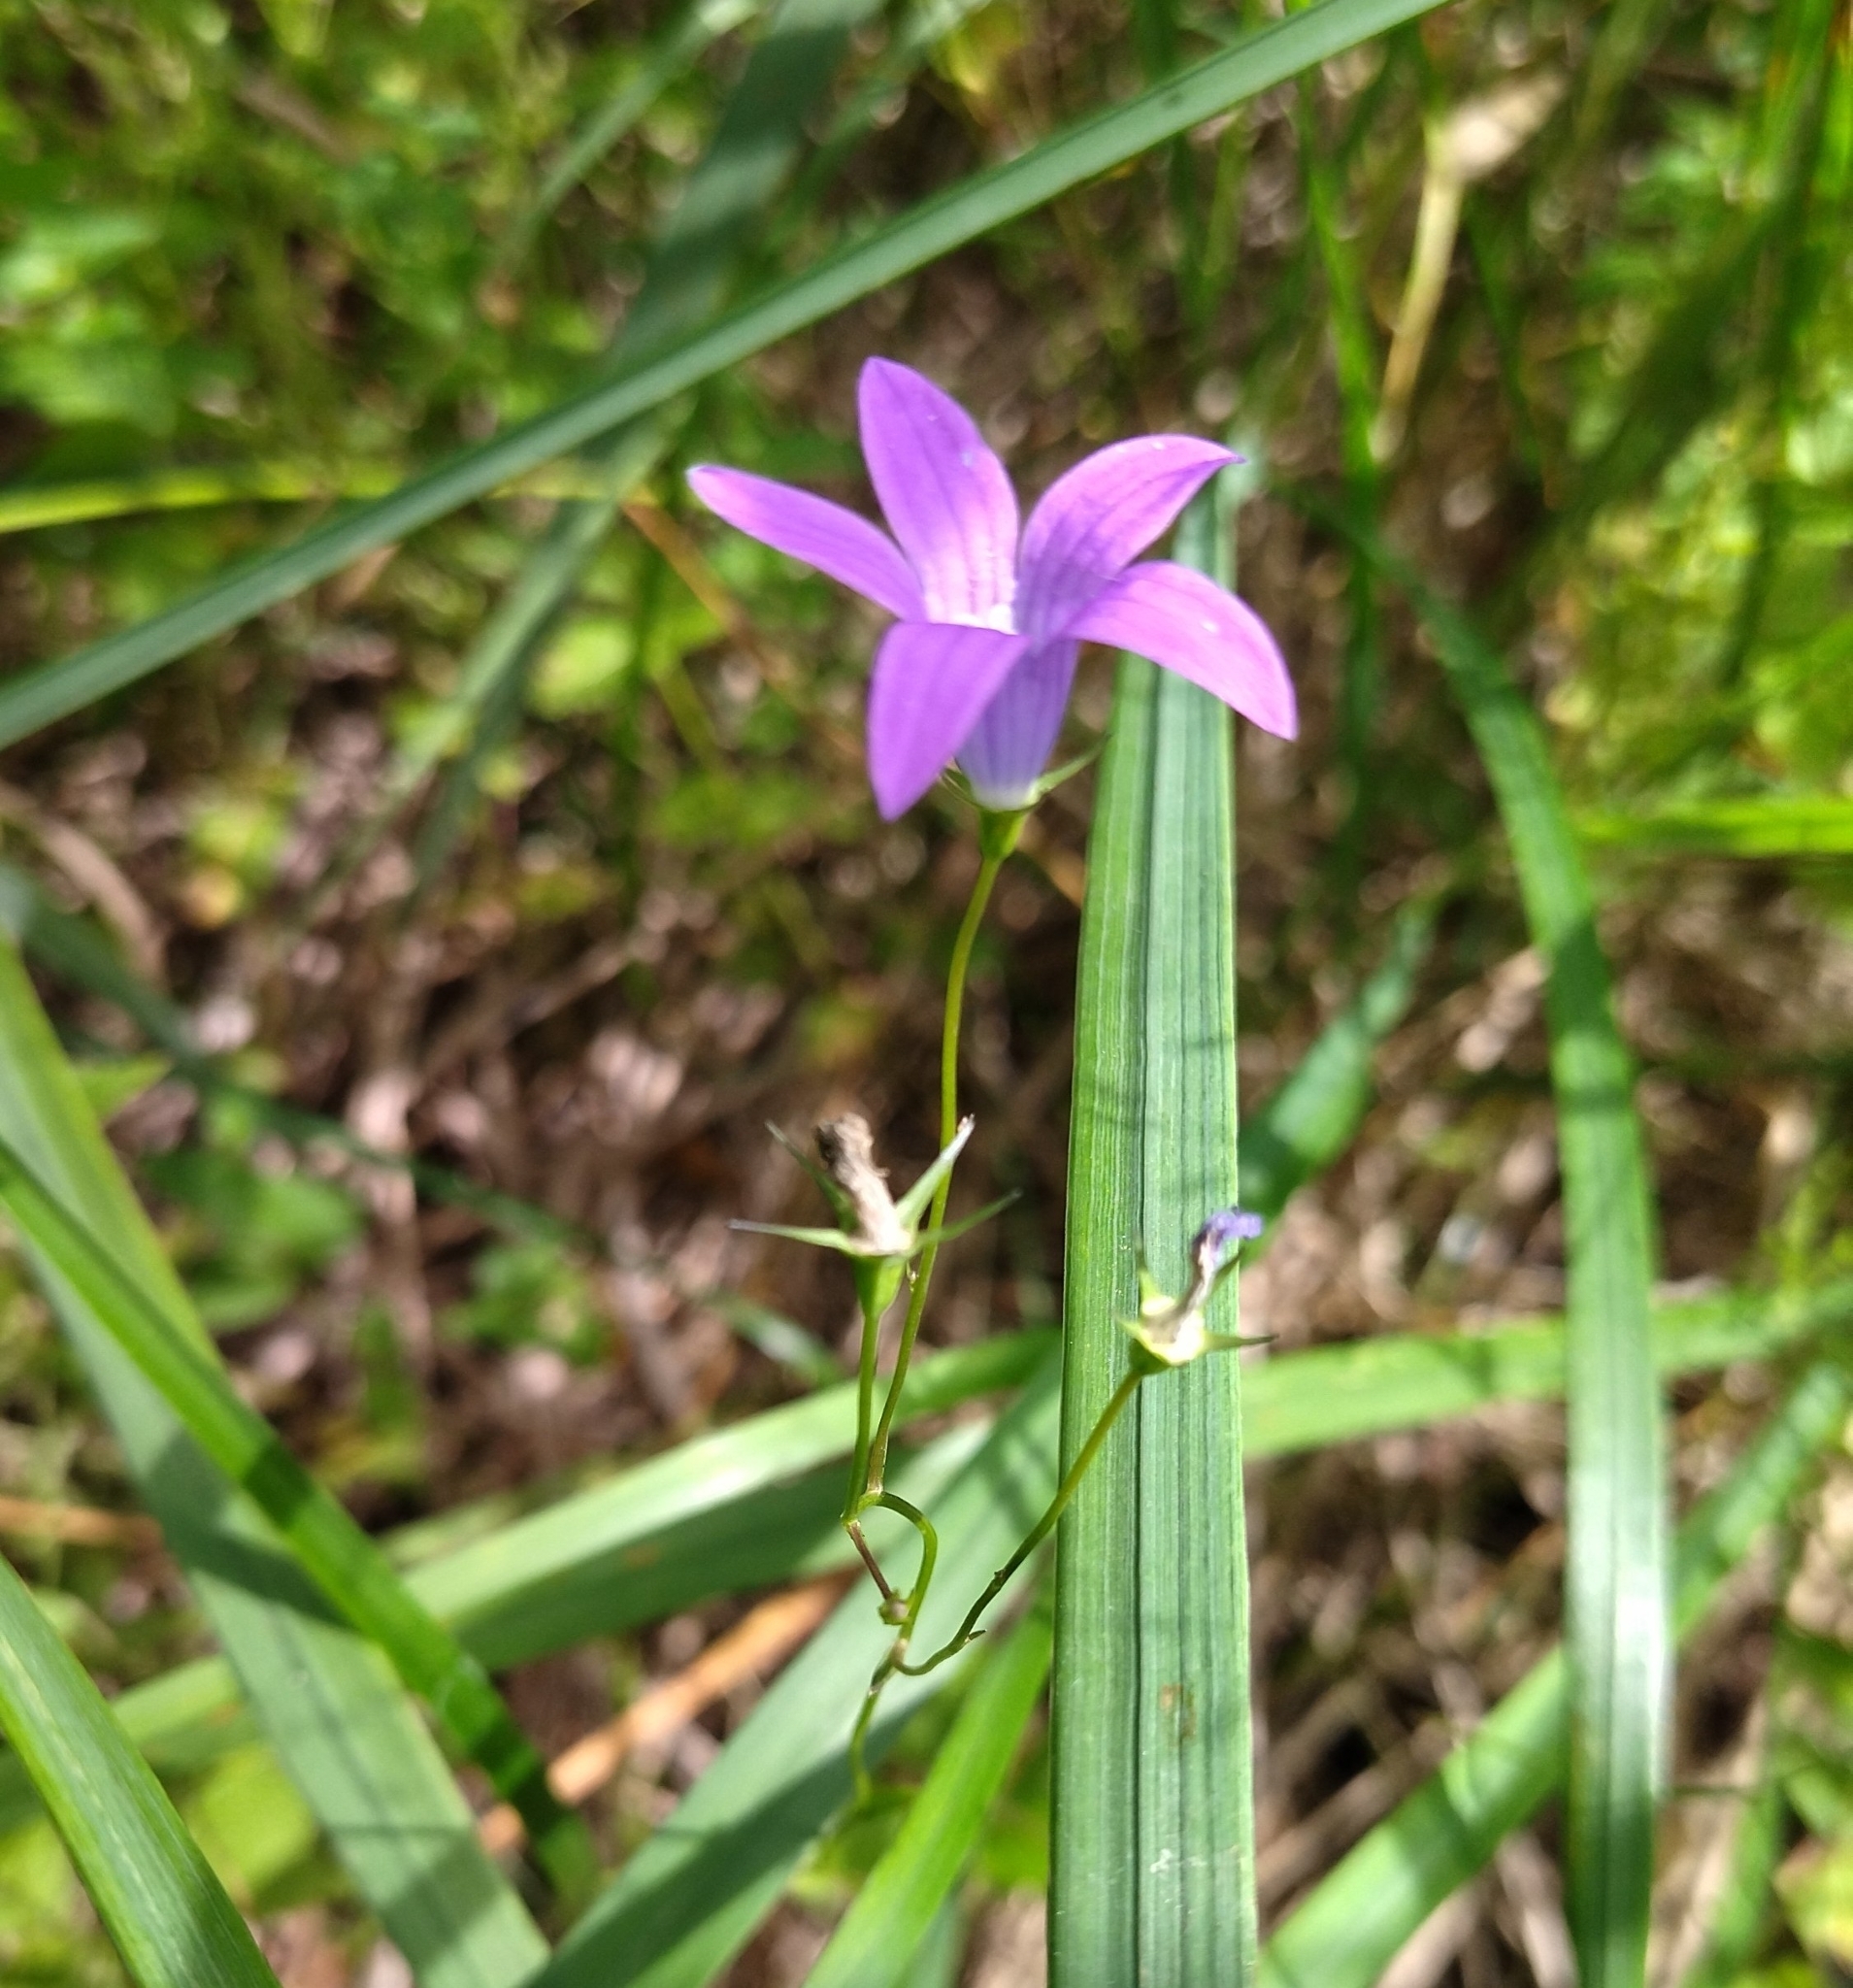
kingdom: Plantae
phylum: Tracheophyta
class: Magnoliopsida
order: Asterales
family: Campanulaceae
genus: Campanula
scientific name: Campanula patula
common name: Spreading bellflower
